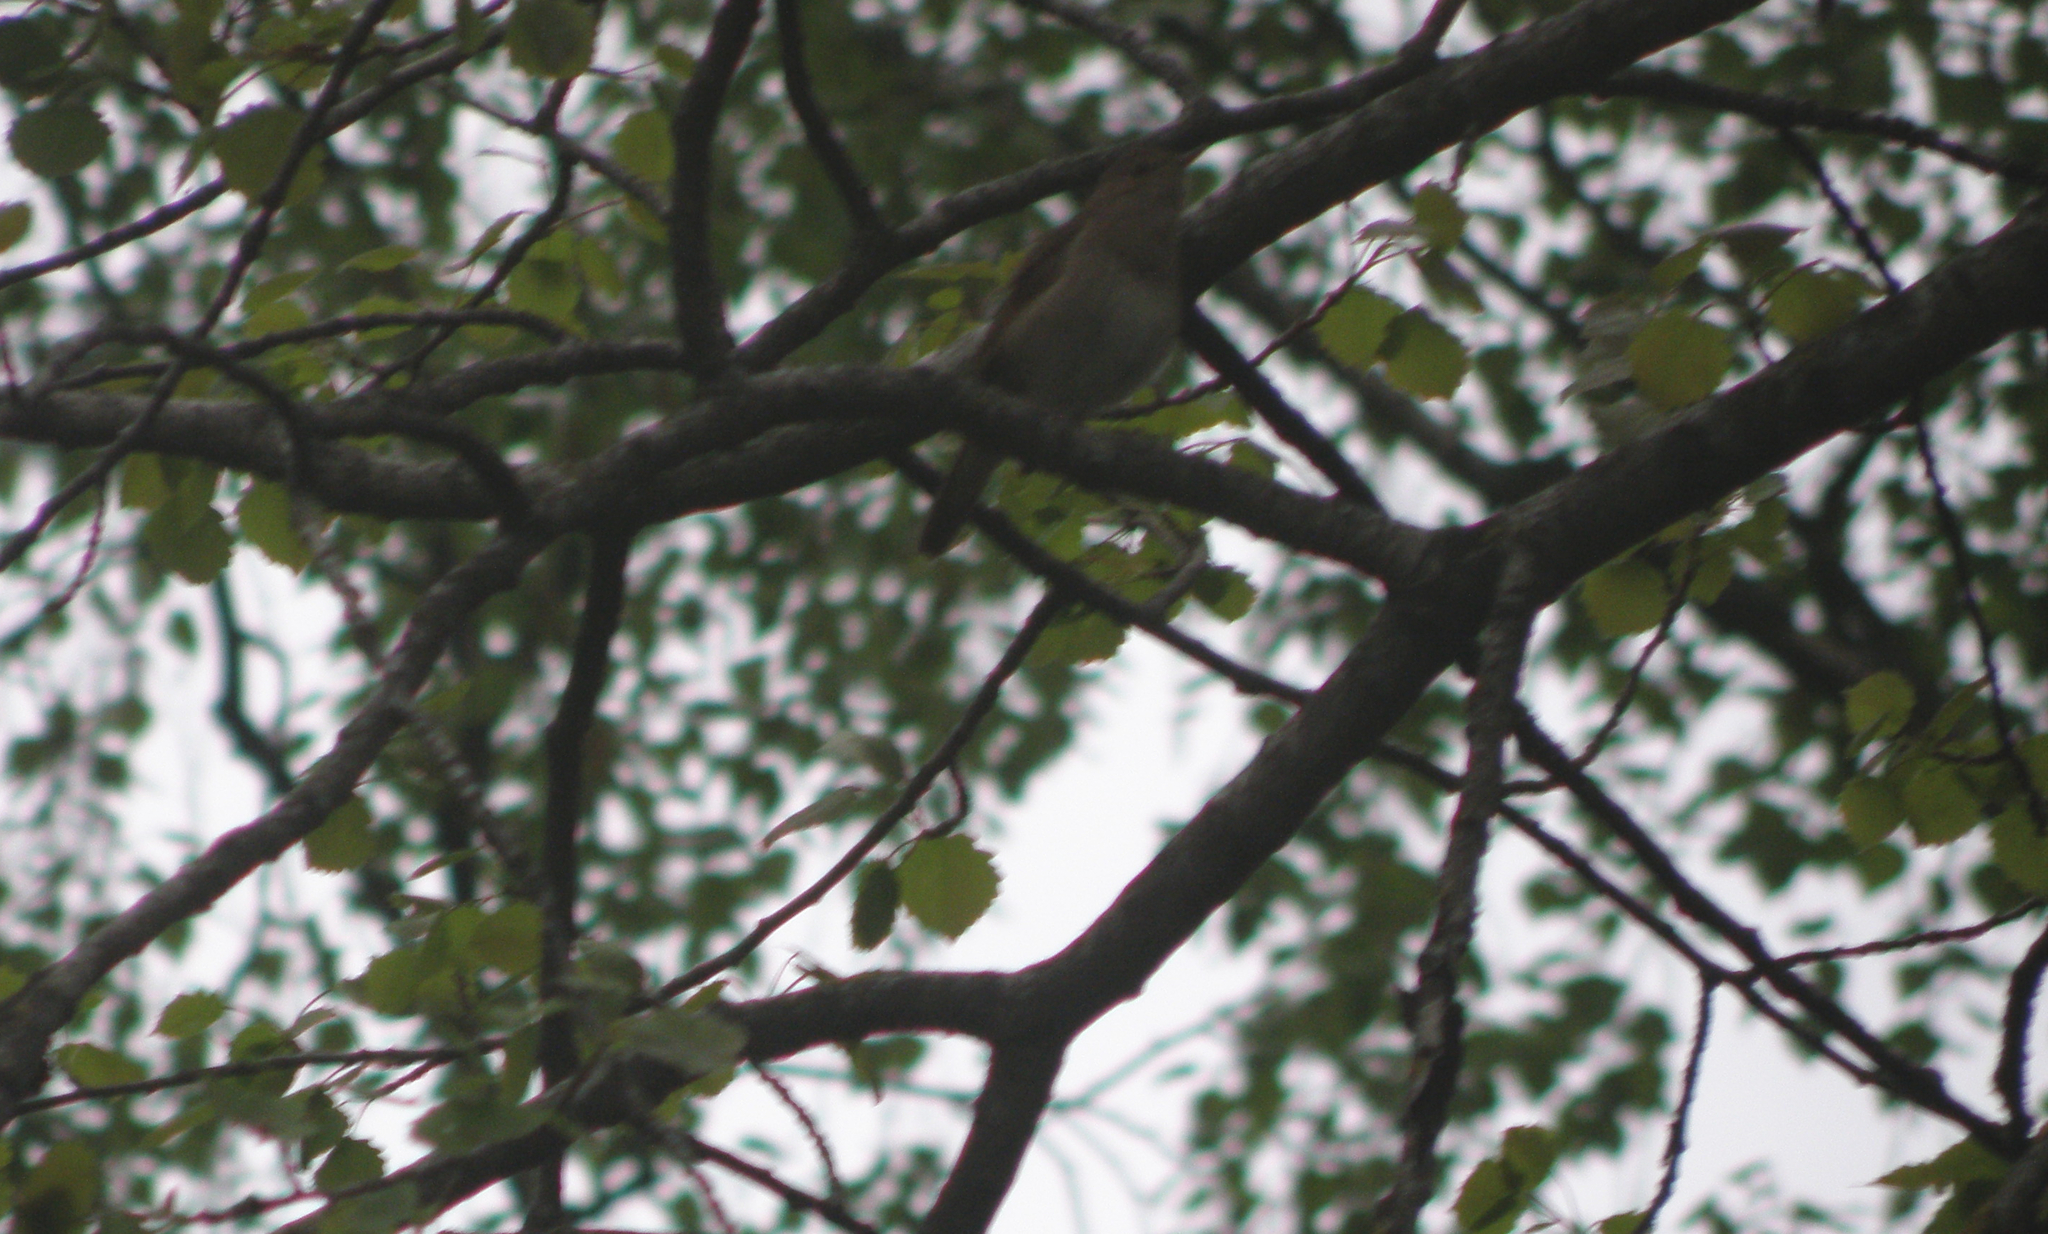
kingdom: Animalia
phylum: Chordata
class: Aves
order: Passeriformes
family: Muscicapidae
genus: Luscinia
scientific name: Luscinia luscinia
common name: Thrush nightingale
